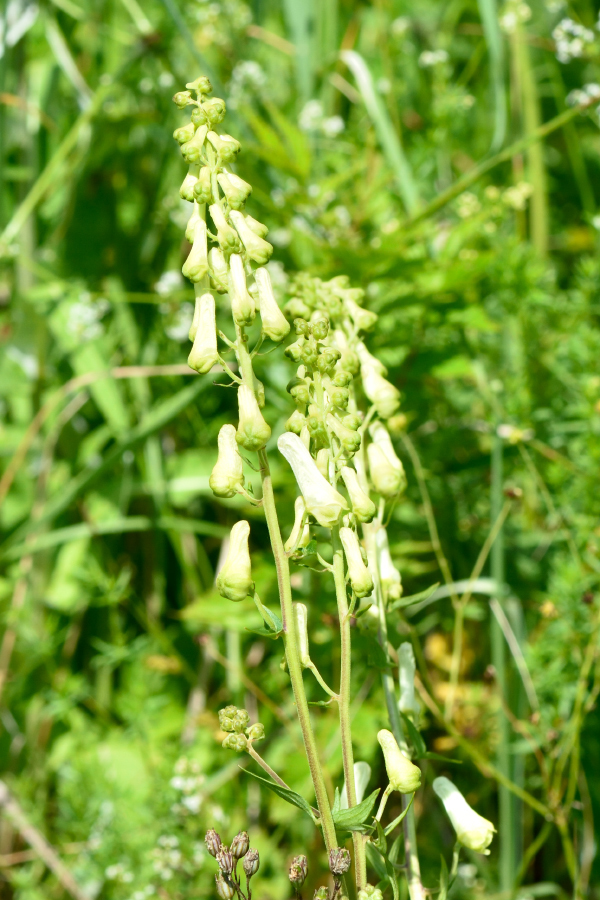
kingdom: Plantae
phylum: Tracheophyta
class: Magnoliopsida
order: Ranunculales
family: Ranunculaceae
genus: Aconitum
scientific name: Aconitum lasiostomum
